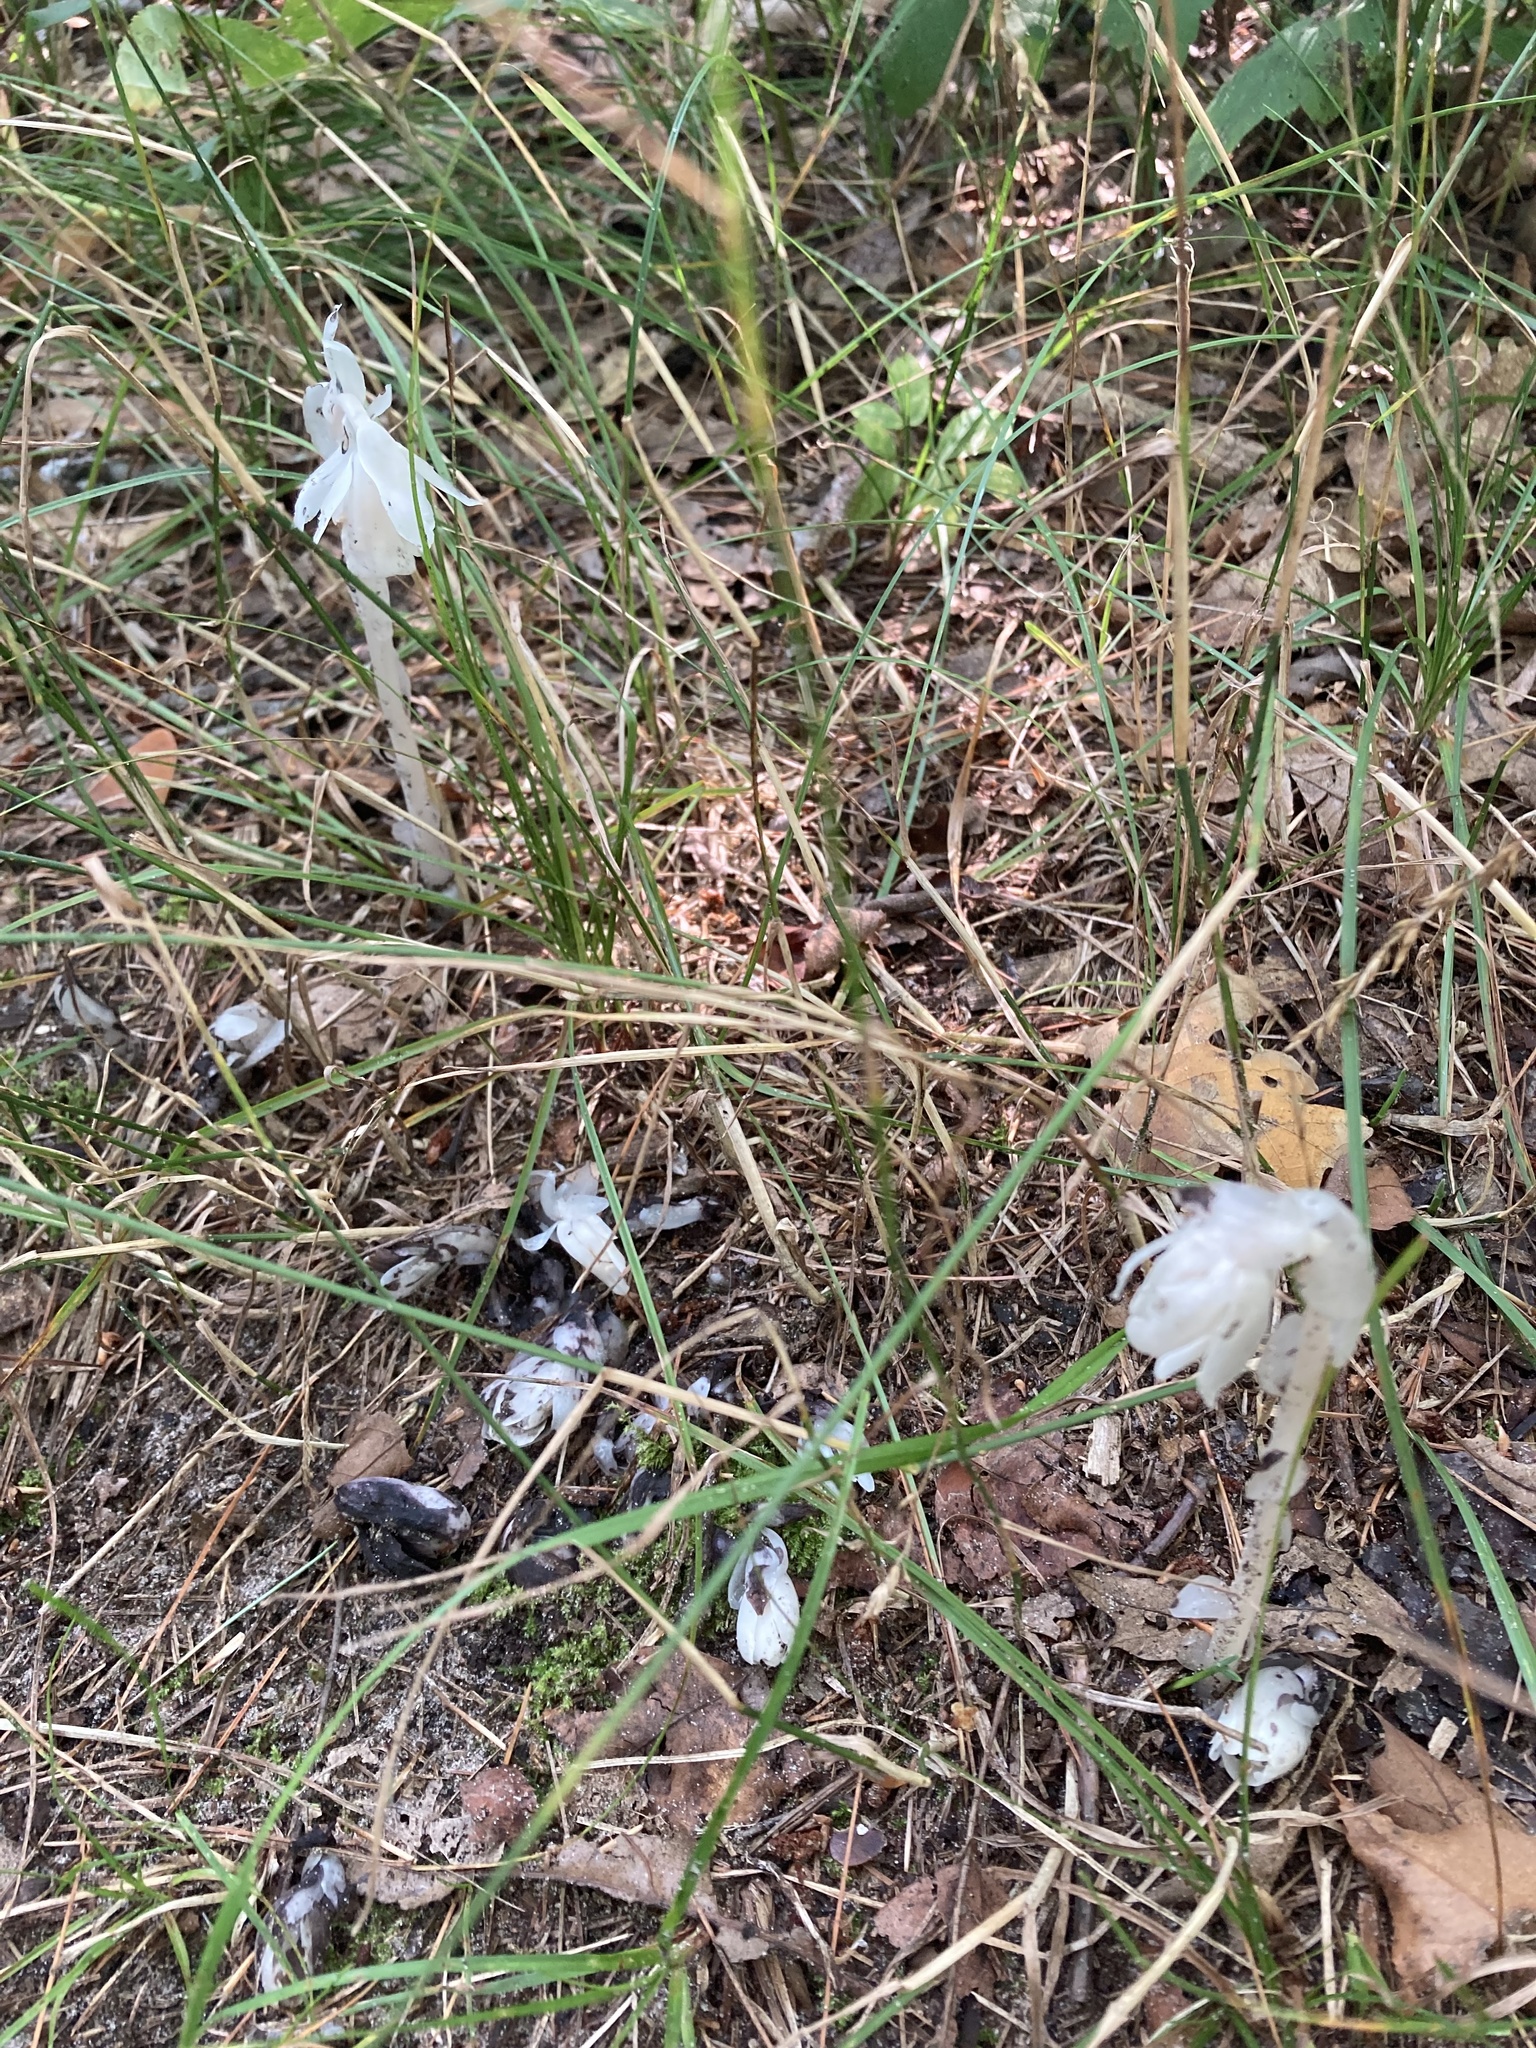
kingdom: Plantae
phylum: Tracheophyta
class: Magnoliopsida
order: Ericales
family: Ericaceae
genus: Monotropa
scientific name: Monotropa uniflora
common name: Convulsion root
